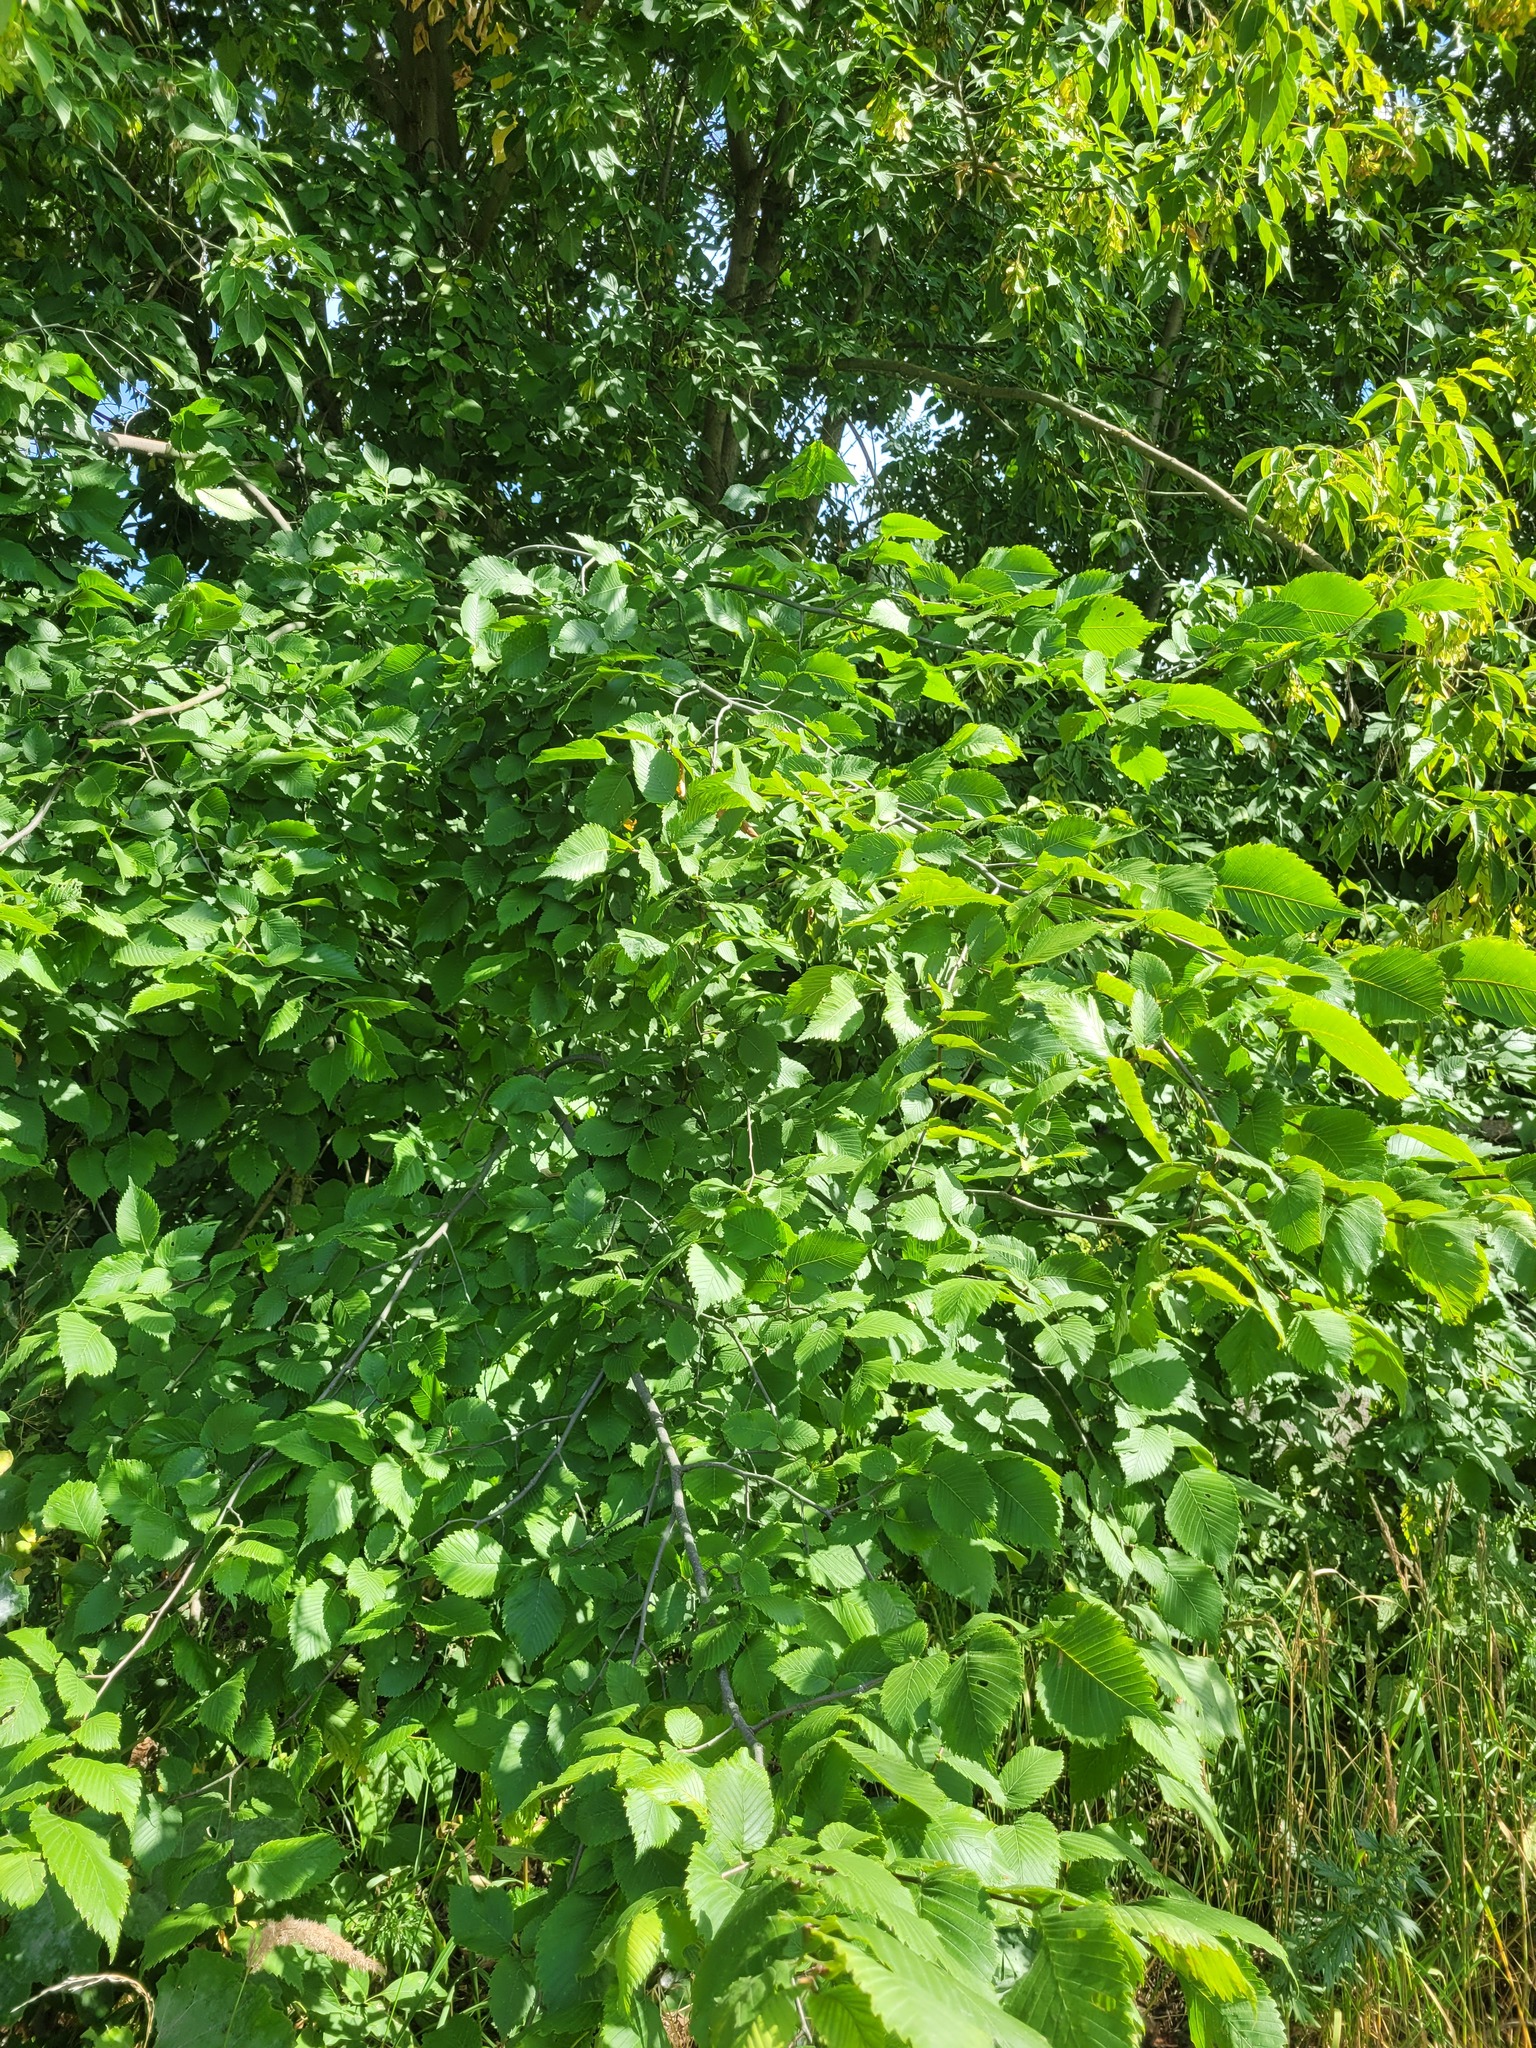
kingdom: Plantae
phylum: Tracheophyta
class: Magnoliopsida
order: Rosales
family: Ulmaceae
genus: Ulmus
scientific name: Ulmus laevis
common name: European white-elm
